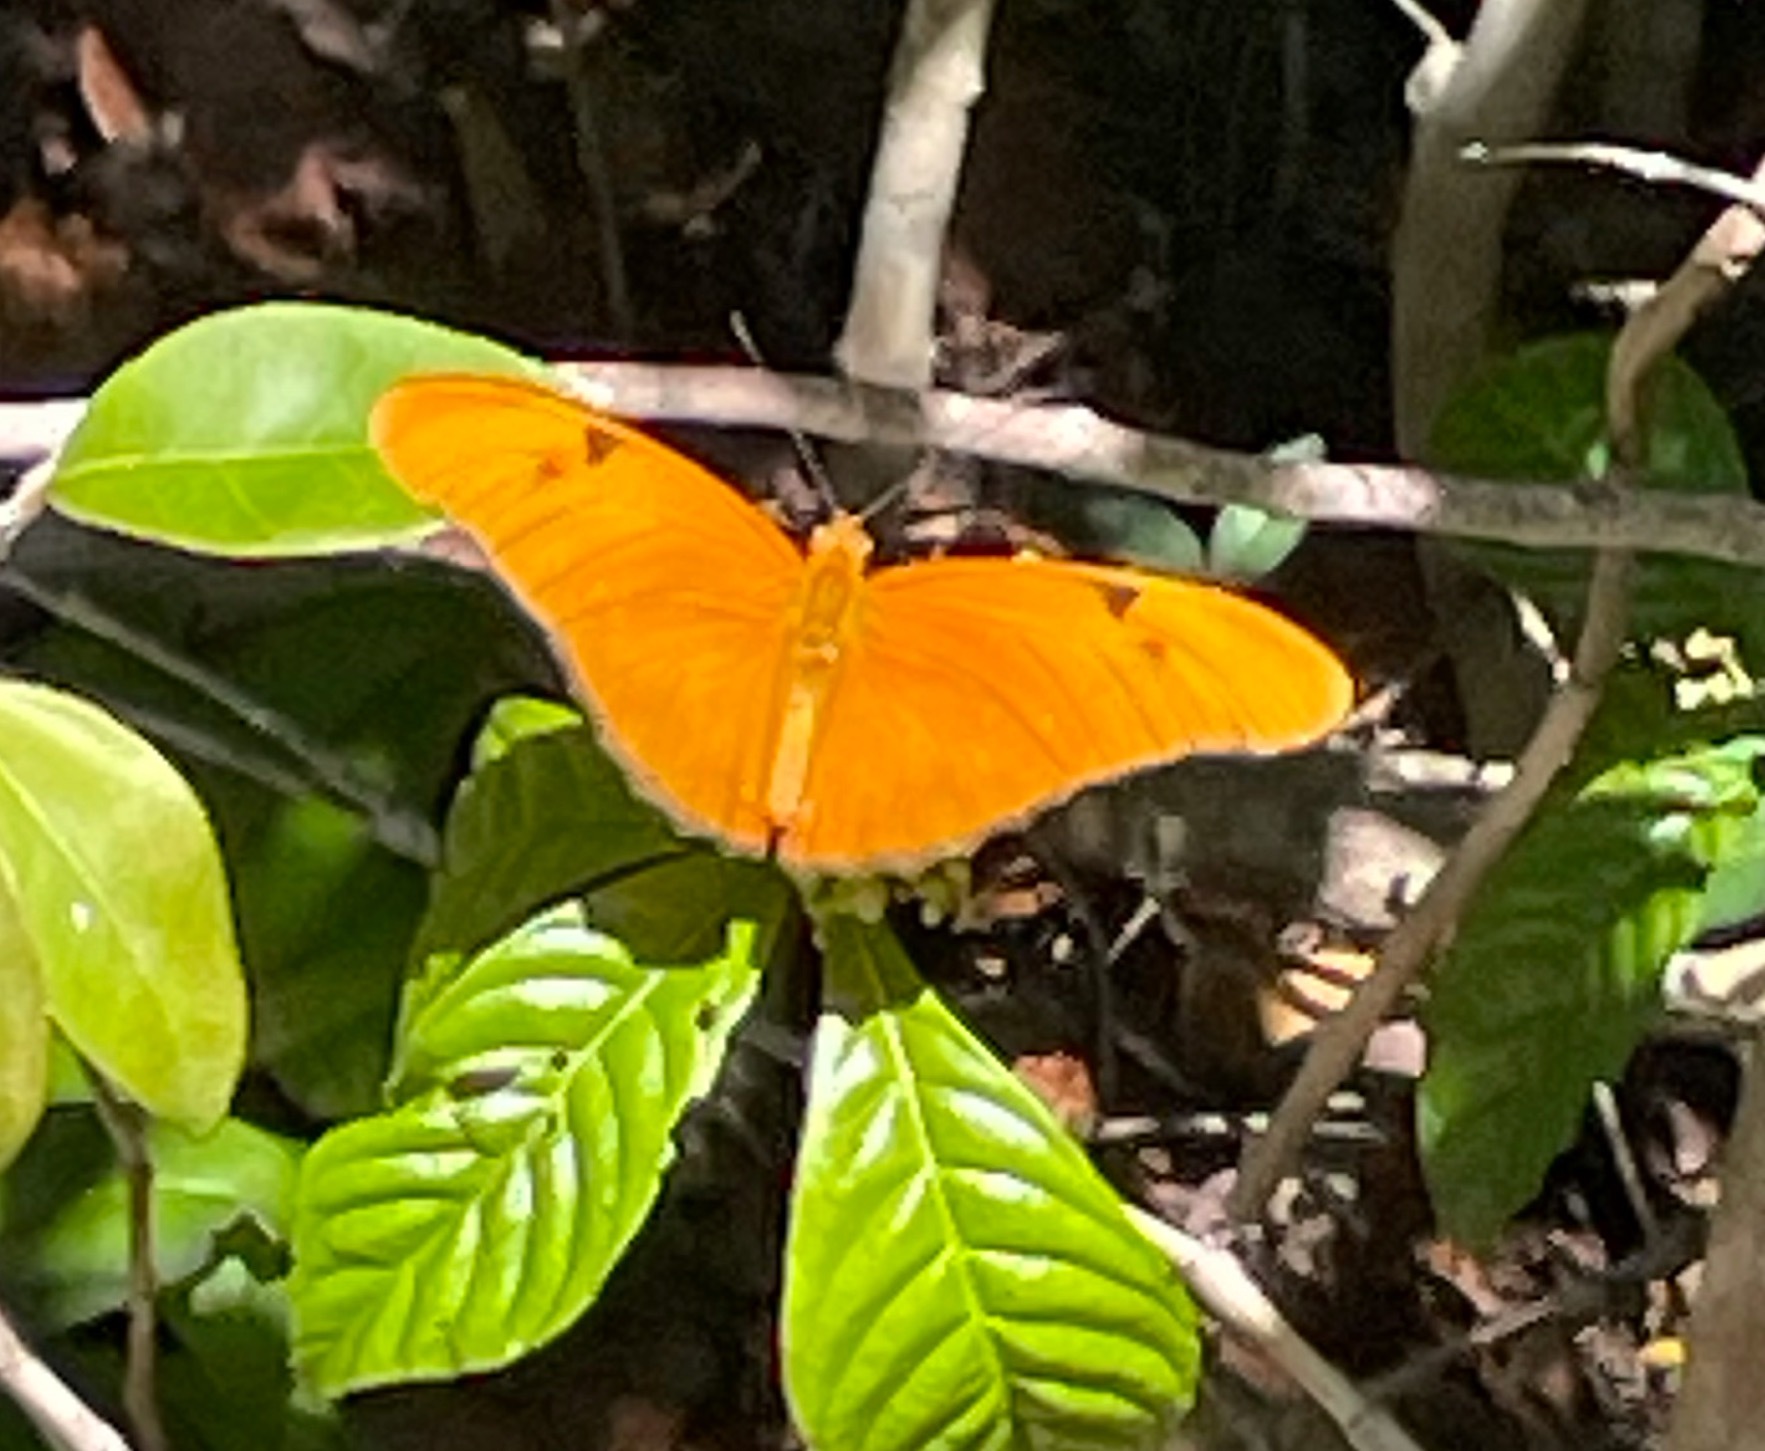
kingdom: Animalia
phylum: Arthropoda
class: Insecta
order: Lepidoptera
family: Nymphalidae
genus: Dryas
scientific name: Dryas iulia
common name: Flambeau
